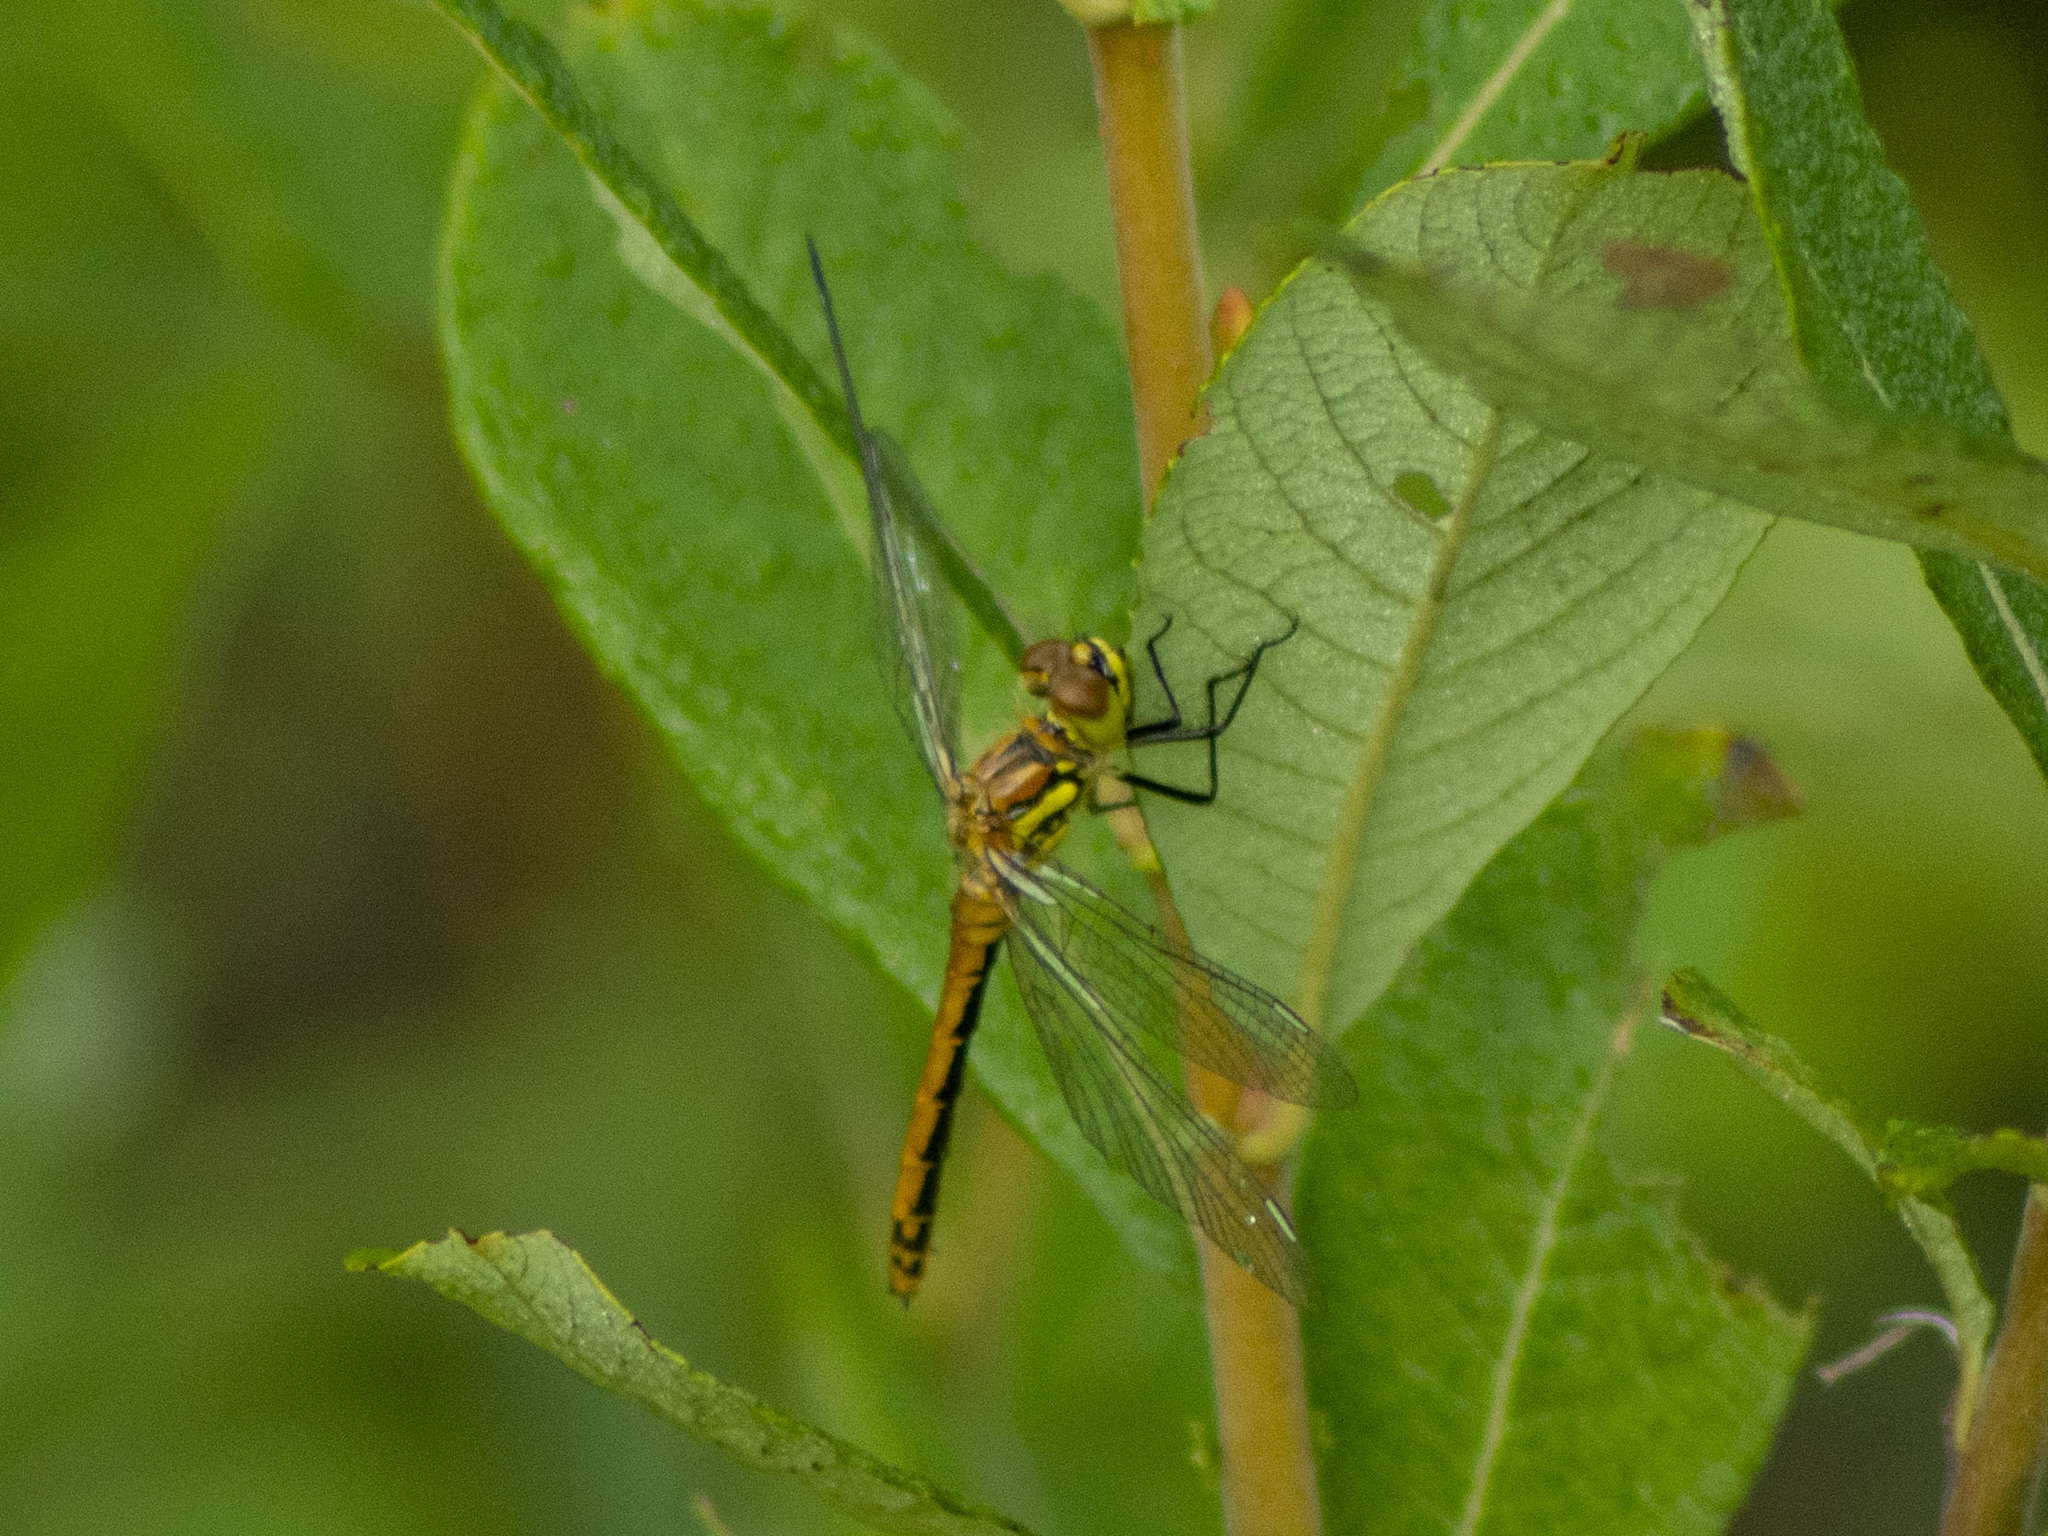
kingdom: Animalia
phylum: Arthropoda
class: Insecta
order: Odonata
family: Libellulidae
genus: Sympetrum
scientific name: Sympetrum danae
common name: Black darter
